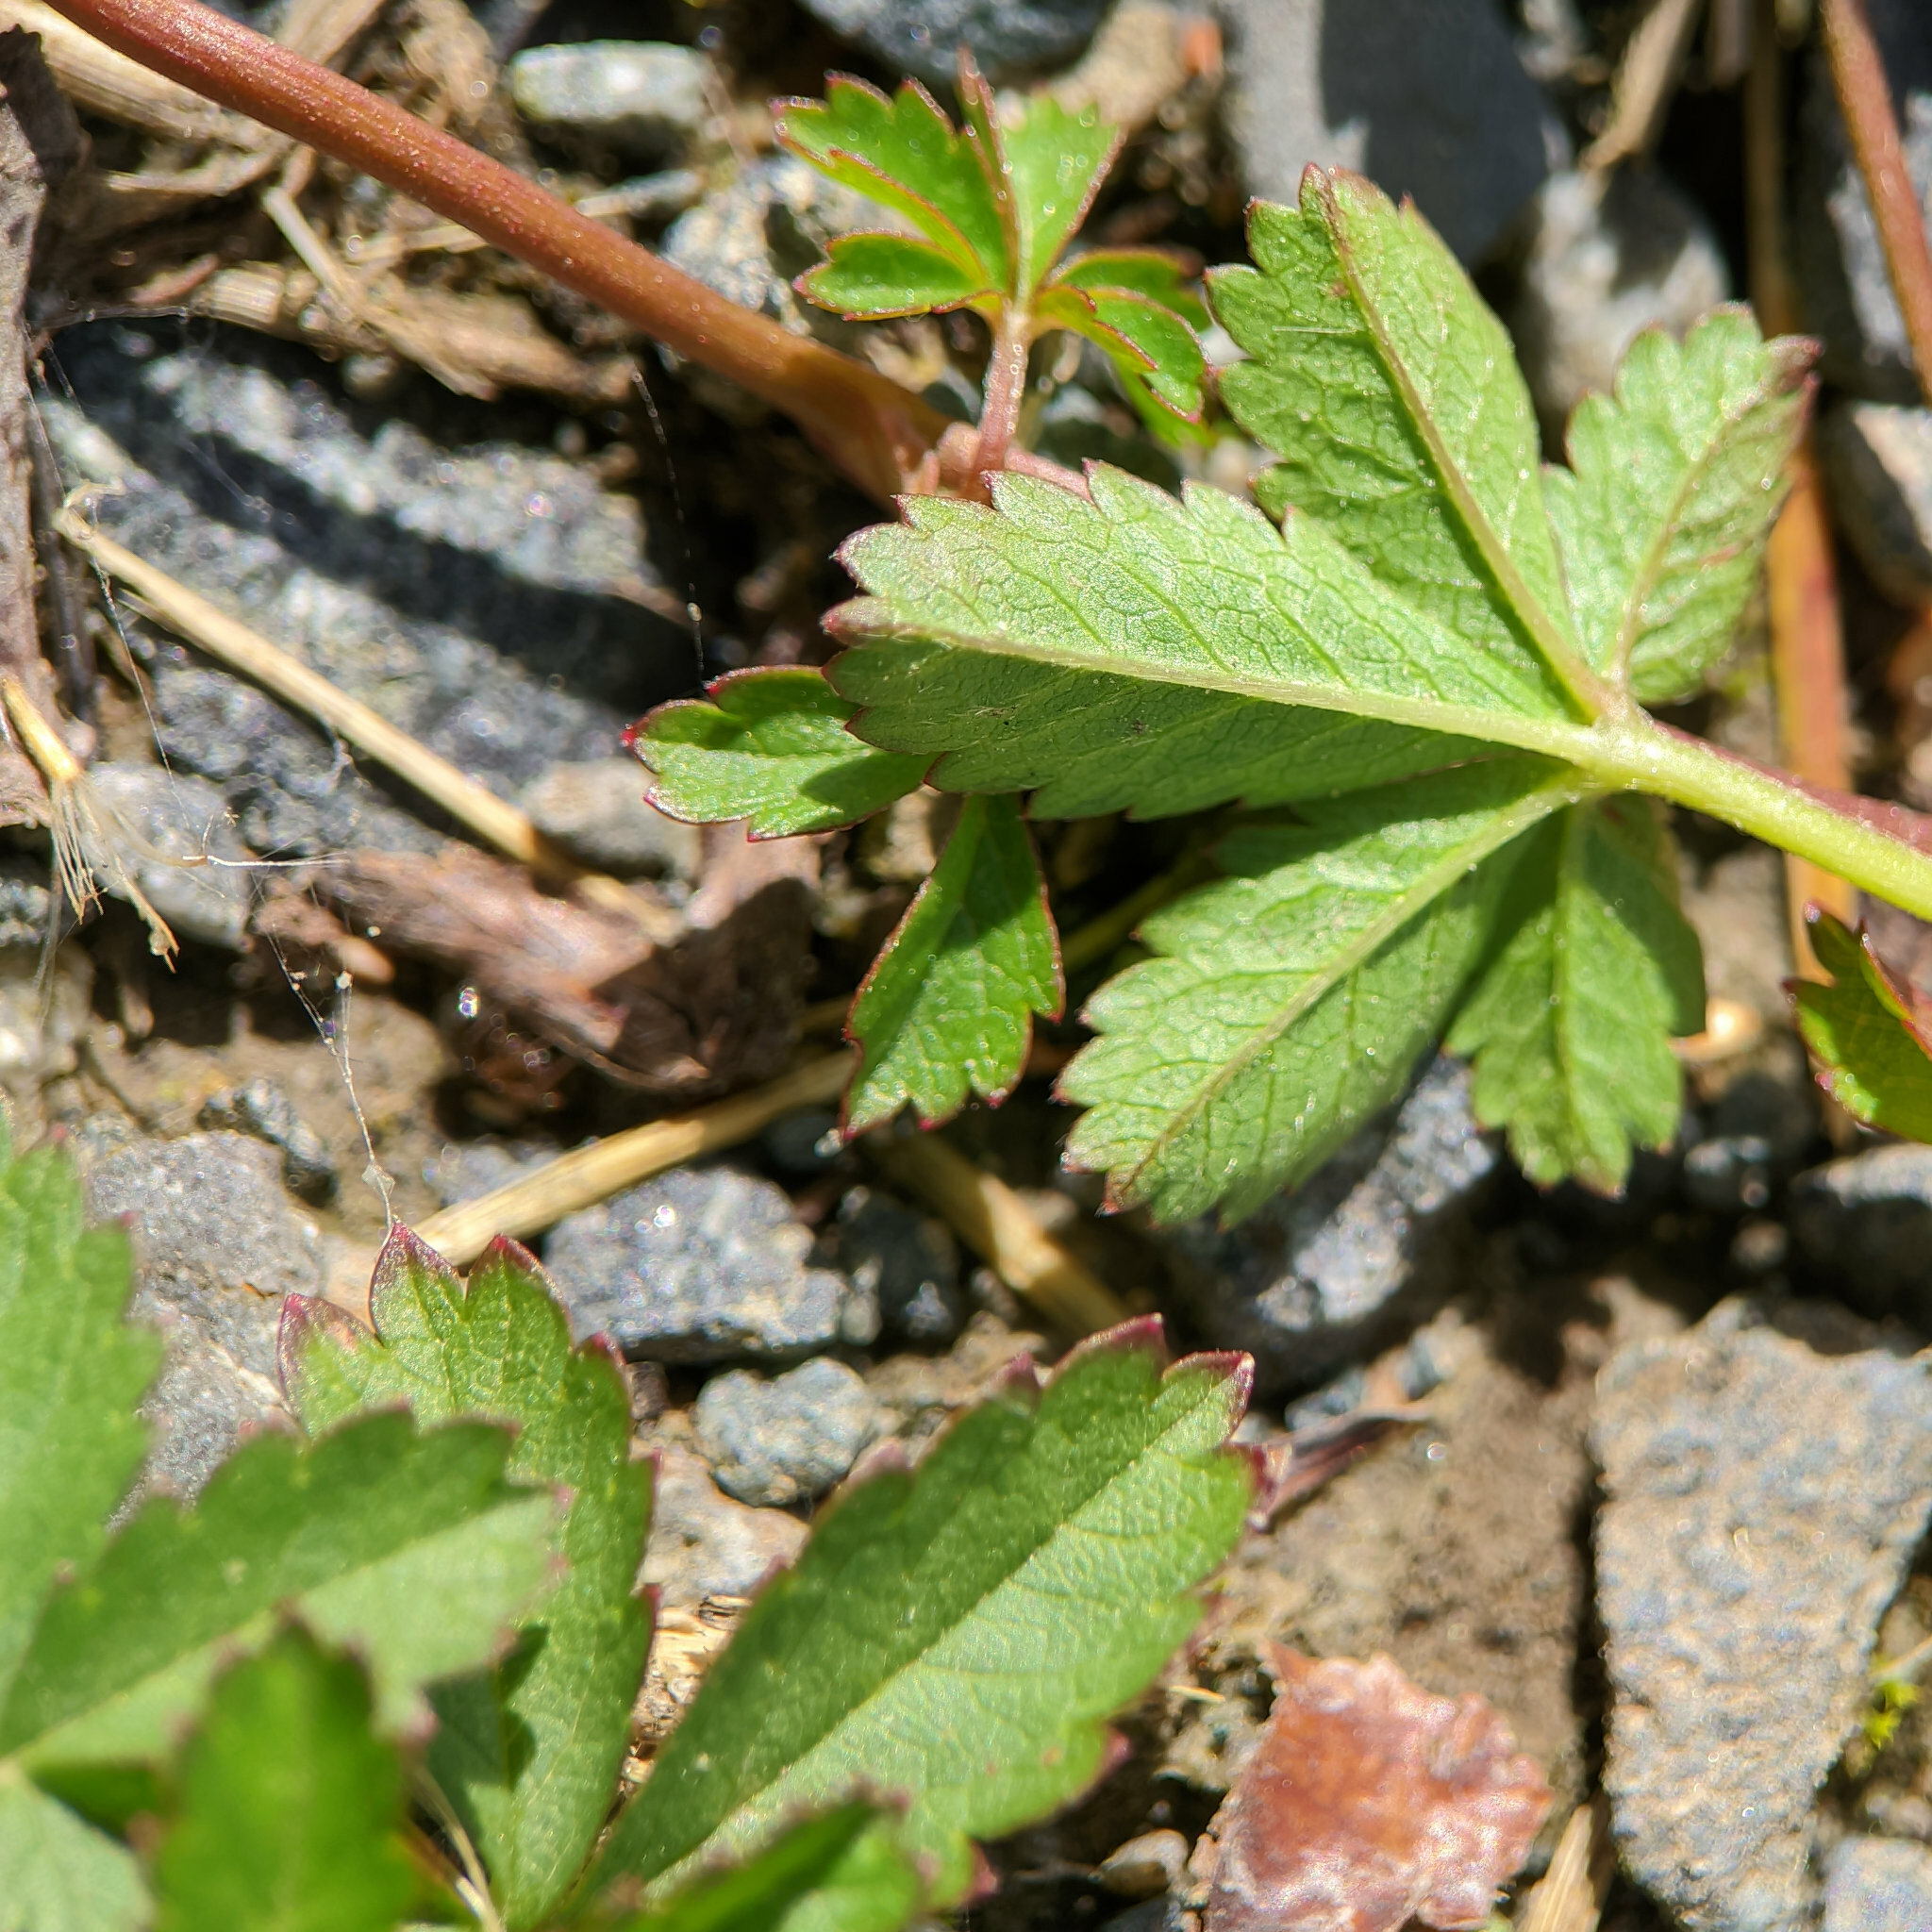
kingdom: Plantae
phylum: Tracheophyta
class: Magnoliopsida
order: Rosales
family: Rosaceae
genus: Potentilla
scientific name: Potentilla reptans
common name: Creeping cinquefoil
